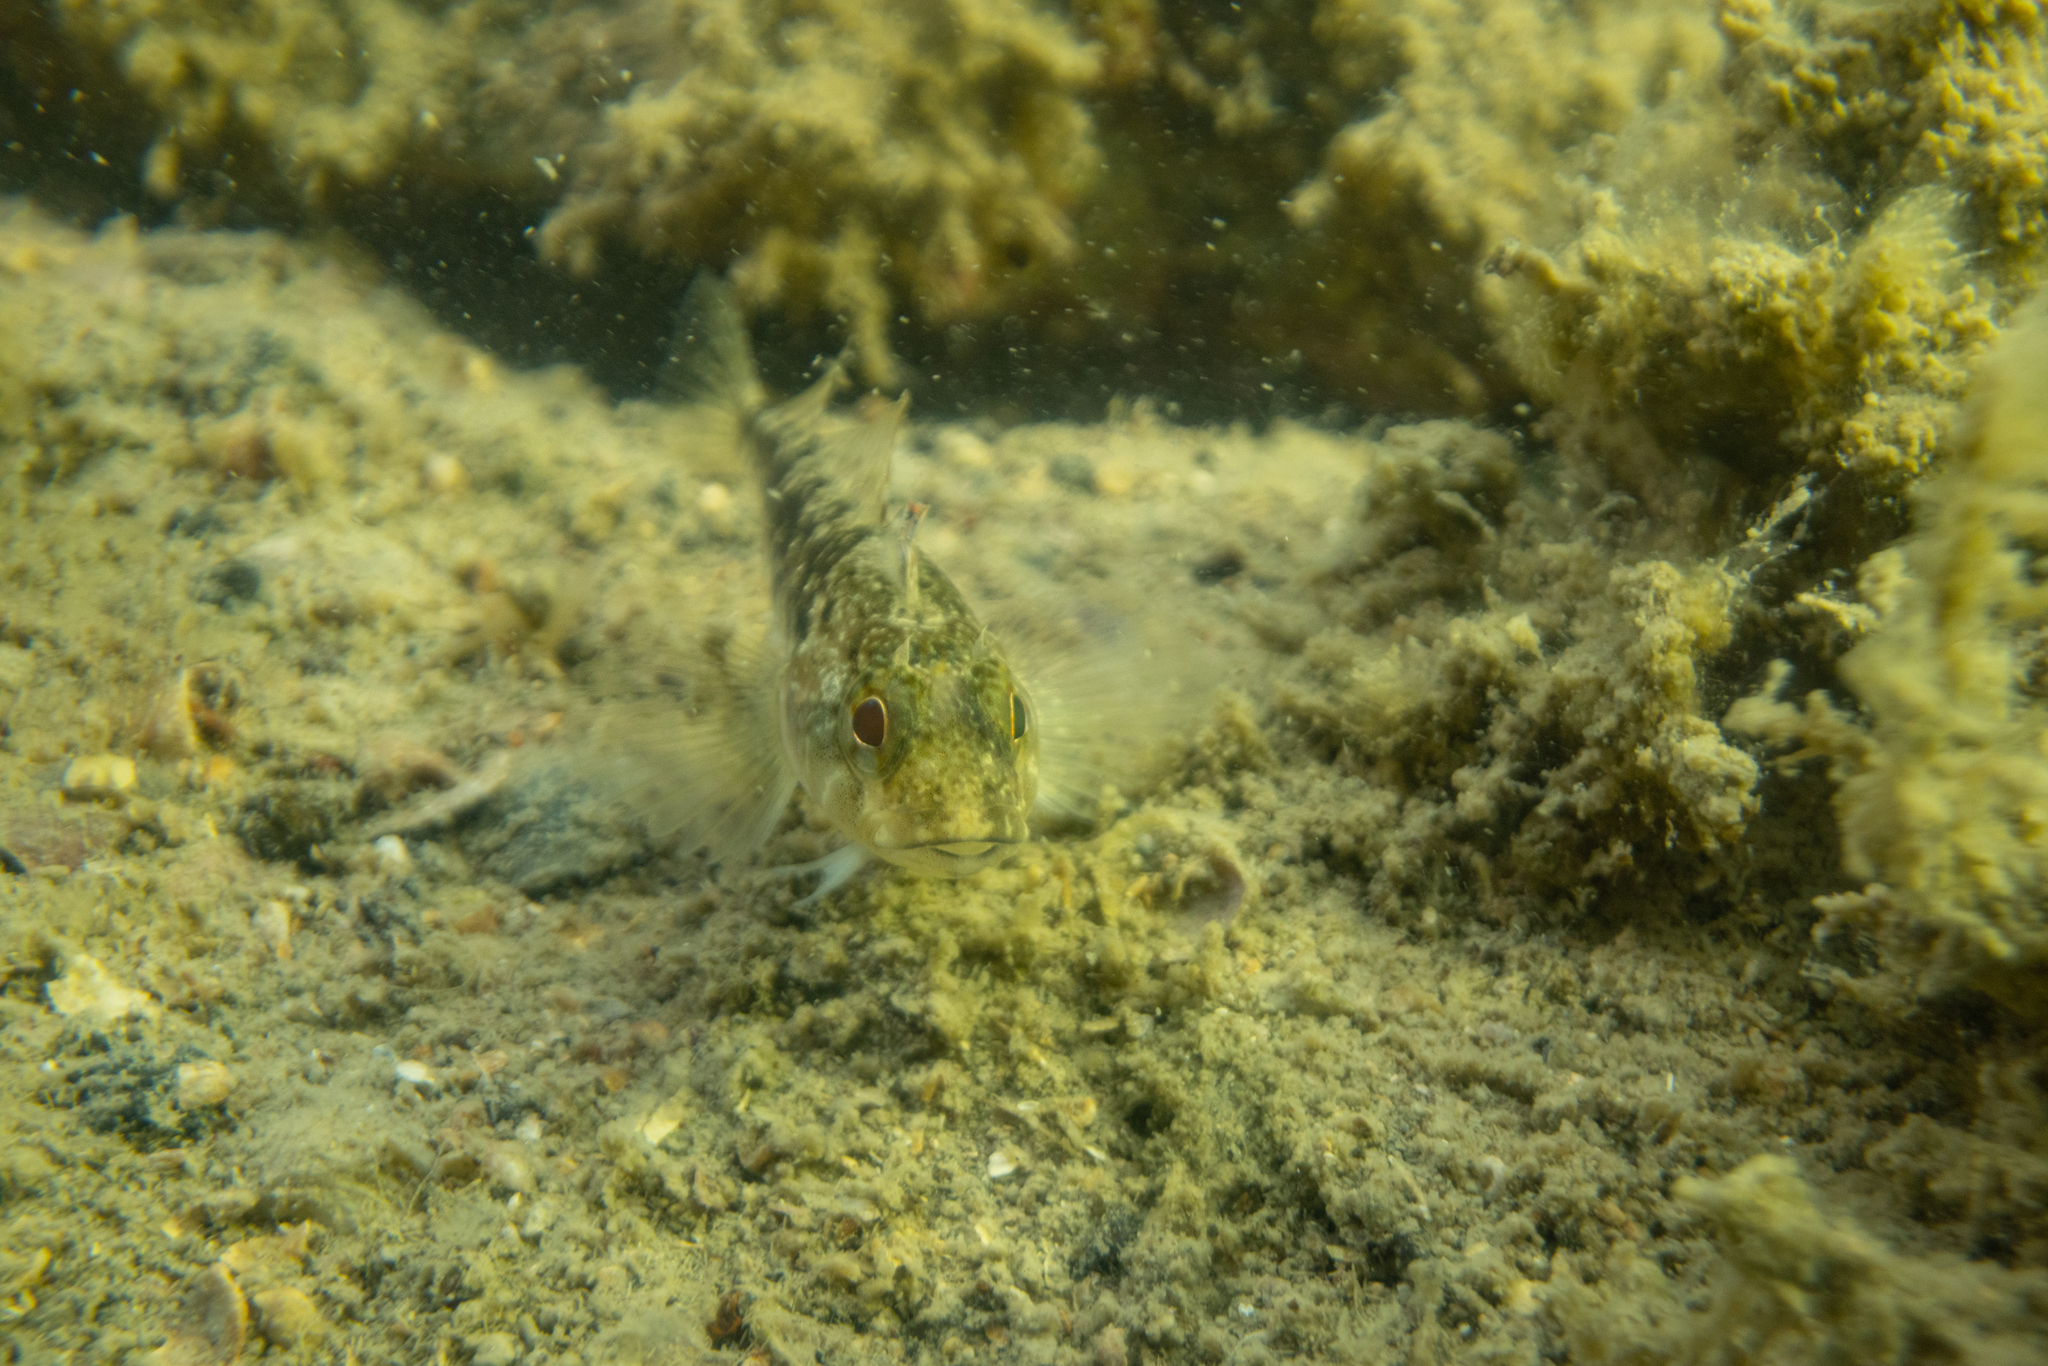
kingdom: Animalia
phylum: Chordata
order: Perciformes
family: Tripterygiidae
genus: Forsterygion
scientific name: Forsterygion capito
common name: Spotted robust triplefin
